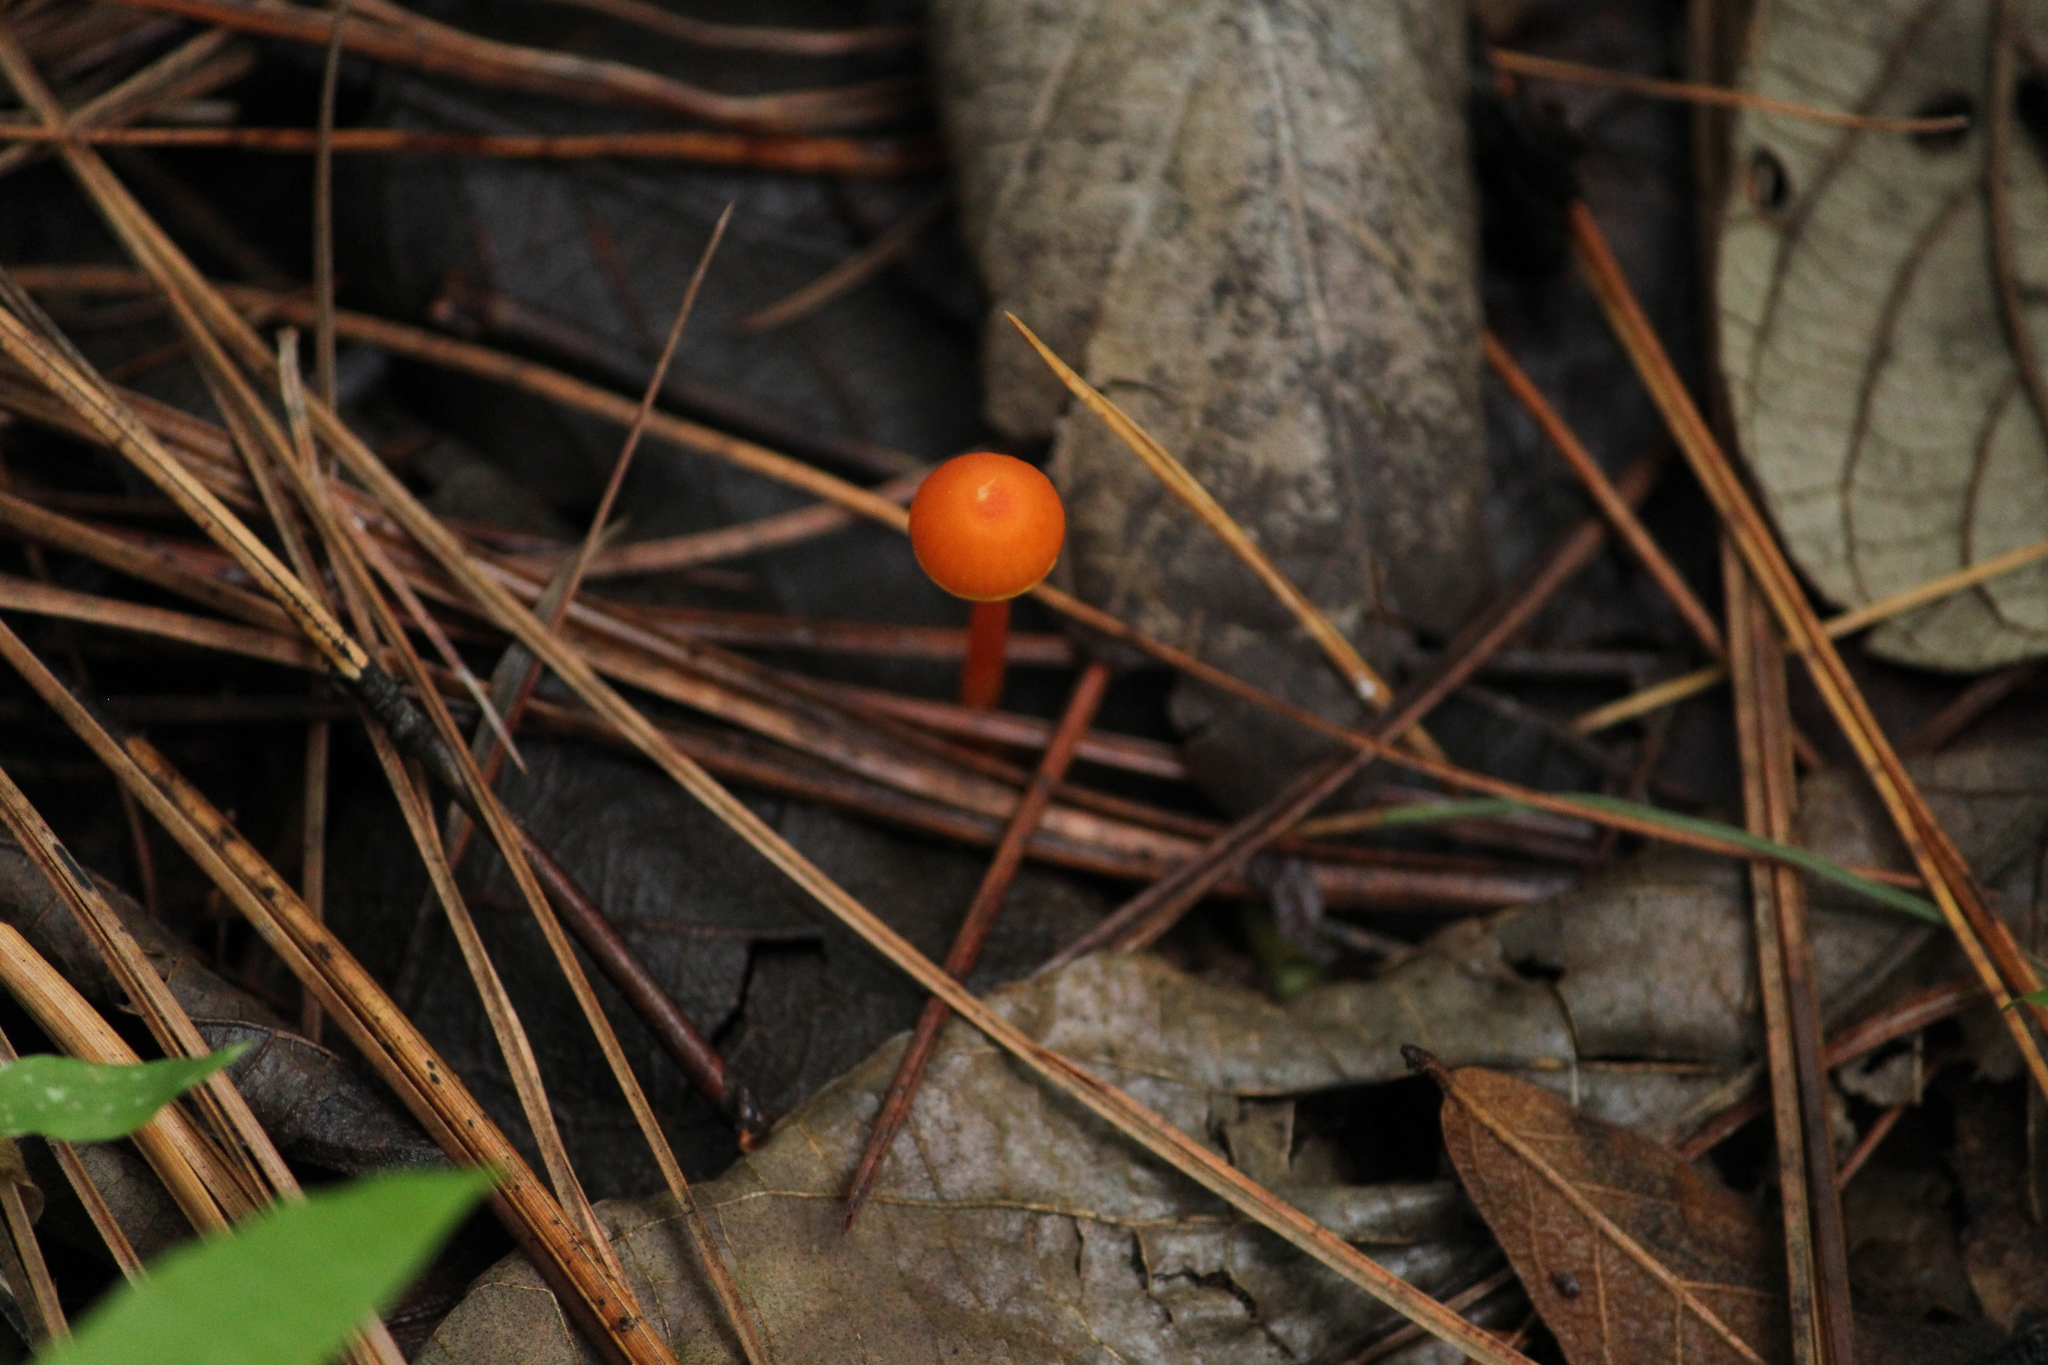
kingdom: Fungi
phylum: Basidiomycota
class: Agaricomycetes
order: Agaricales
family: Hygrophoraceae
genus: Hygrocybe
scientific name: Hygrocybe cantharellus
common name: Goblet waxcap
